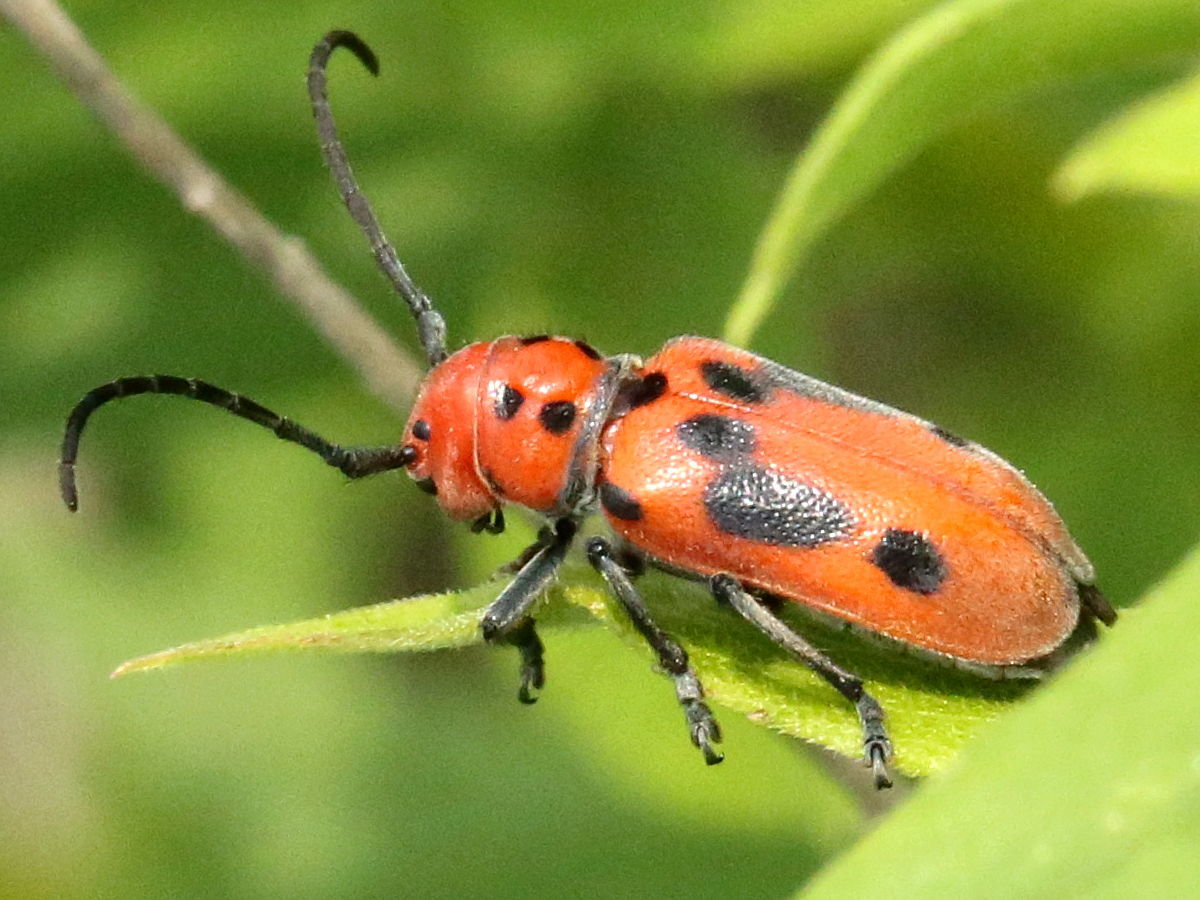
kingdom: Animalia
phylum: Arthropoda
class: Insecta
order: Coleoptera
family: Cerambycidae
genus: Tetraopes
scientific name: Tetraopes tetrophthalmus
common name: Red milkweed beetle
